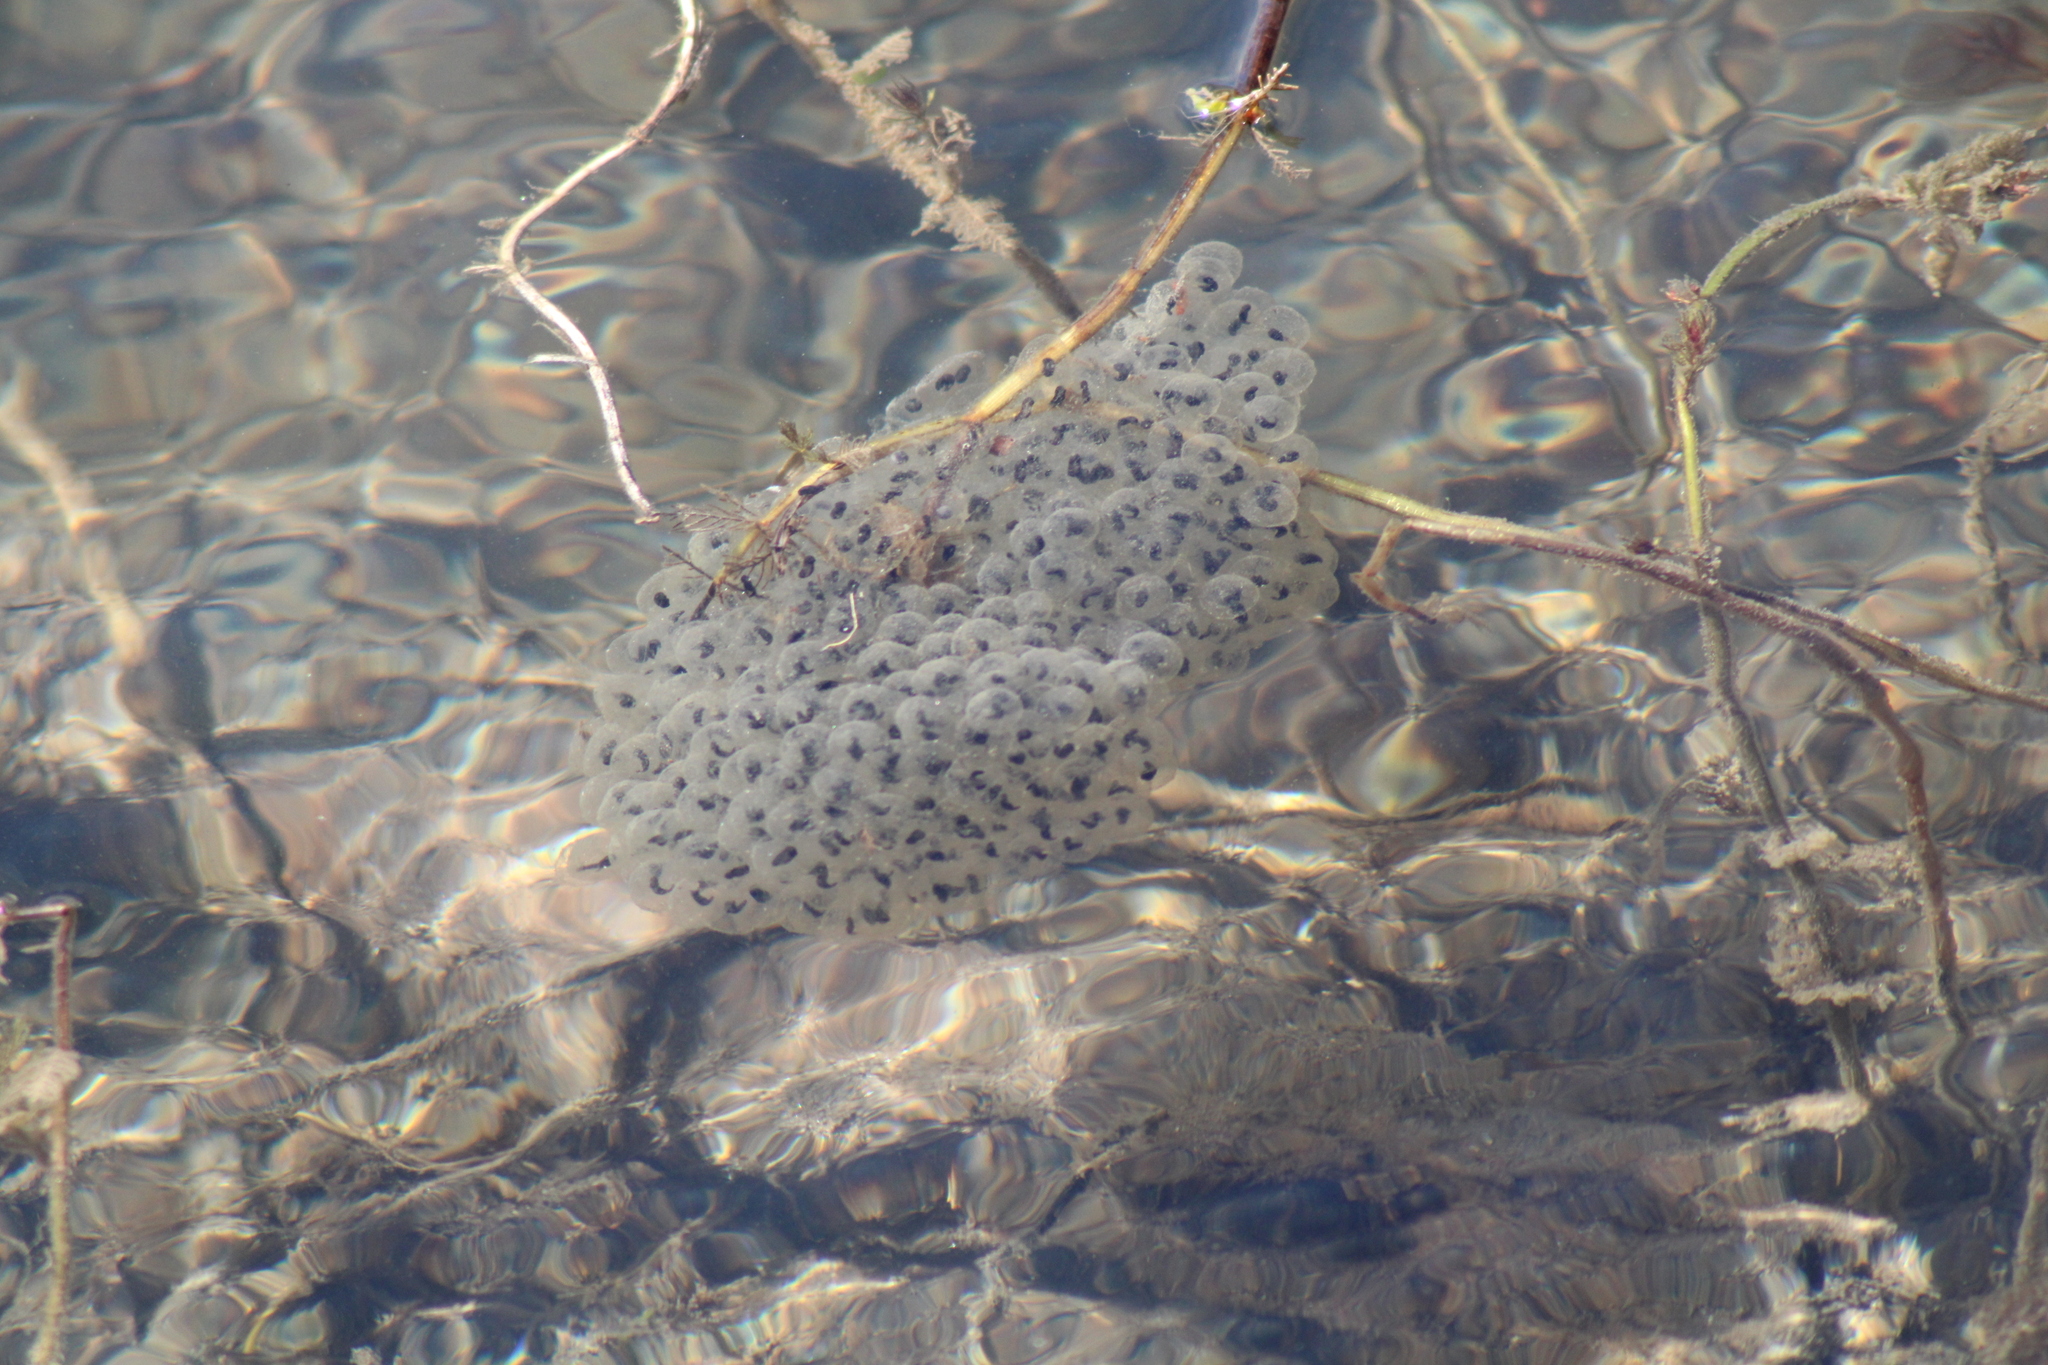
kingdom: Animalia
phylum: Chordata
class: Amphibia
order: Anura
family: Ranidae
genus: Rana
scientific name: Rana dalmatina
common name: Agile frog
